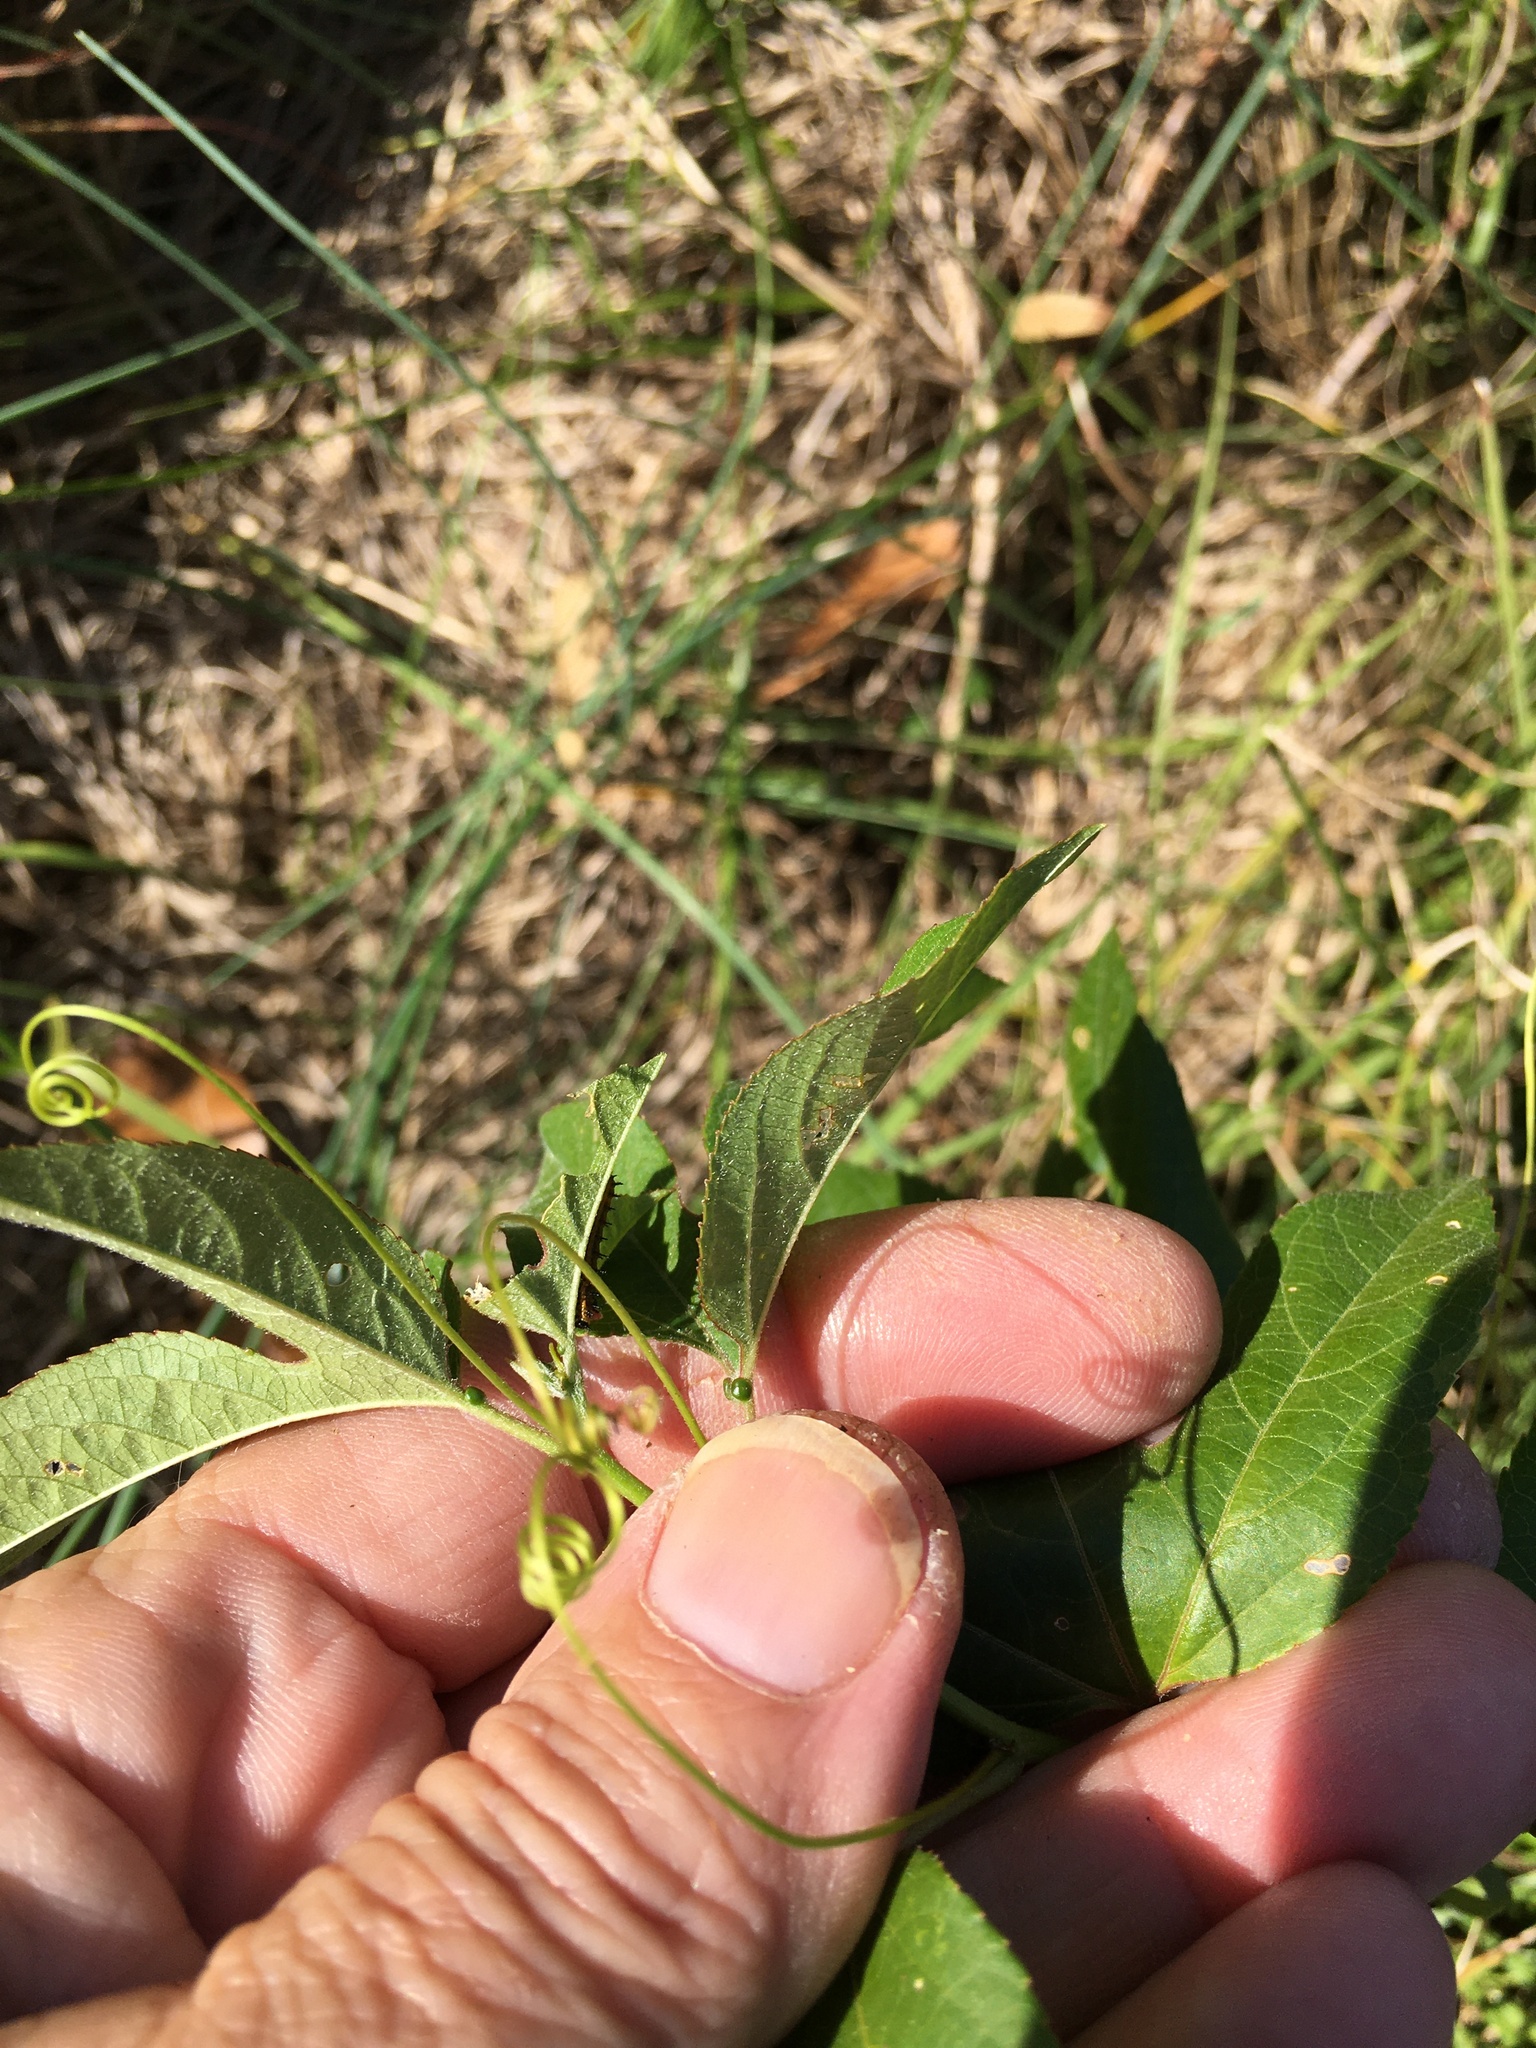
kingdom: Plantae
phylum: Tracheophyta
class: Magnoliopsida
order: Malpighiales
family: Passifloraceae
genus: Passiflora
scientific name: Passiflora incarnata
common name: Apricot-vine
